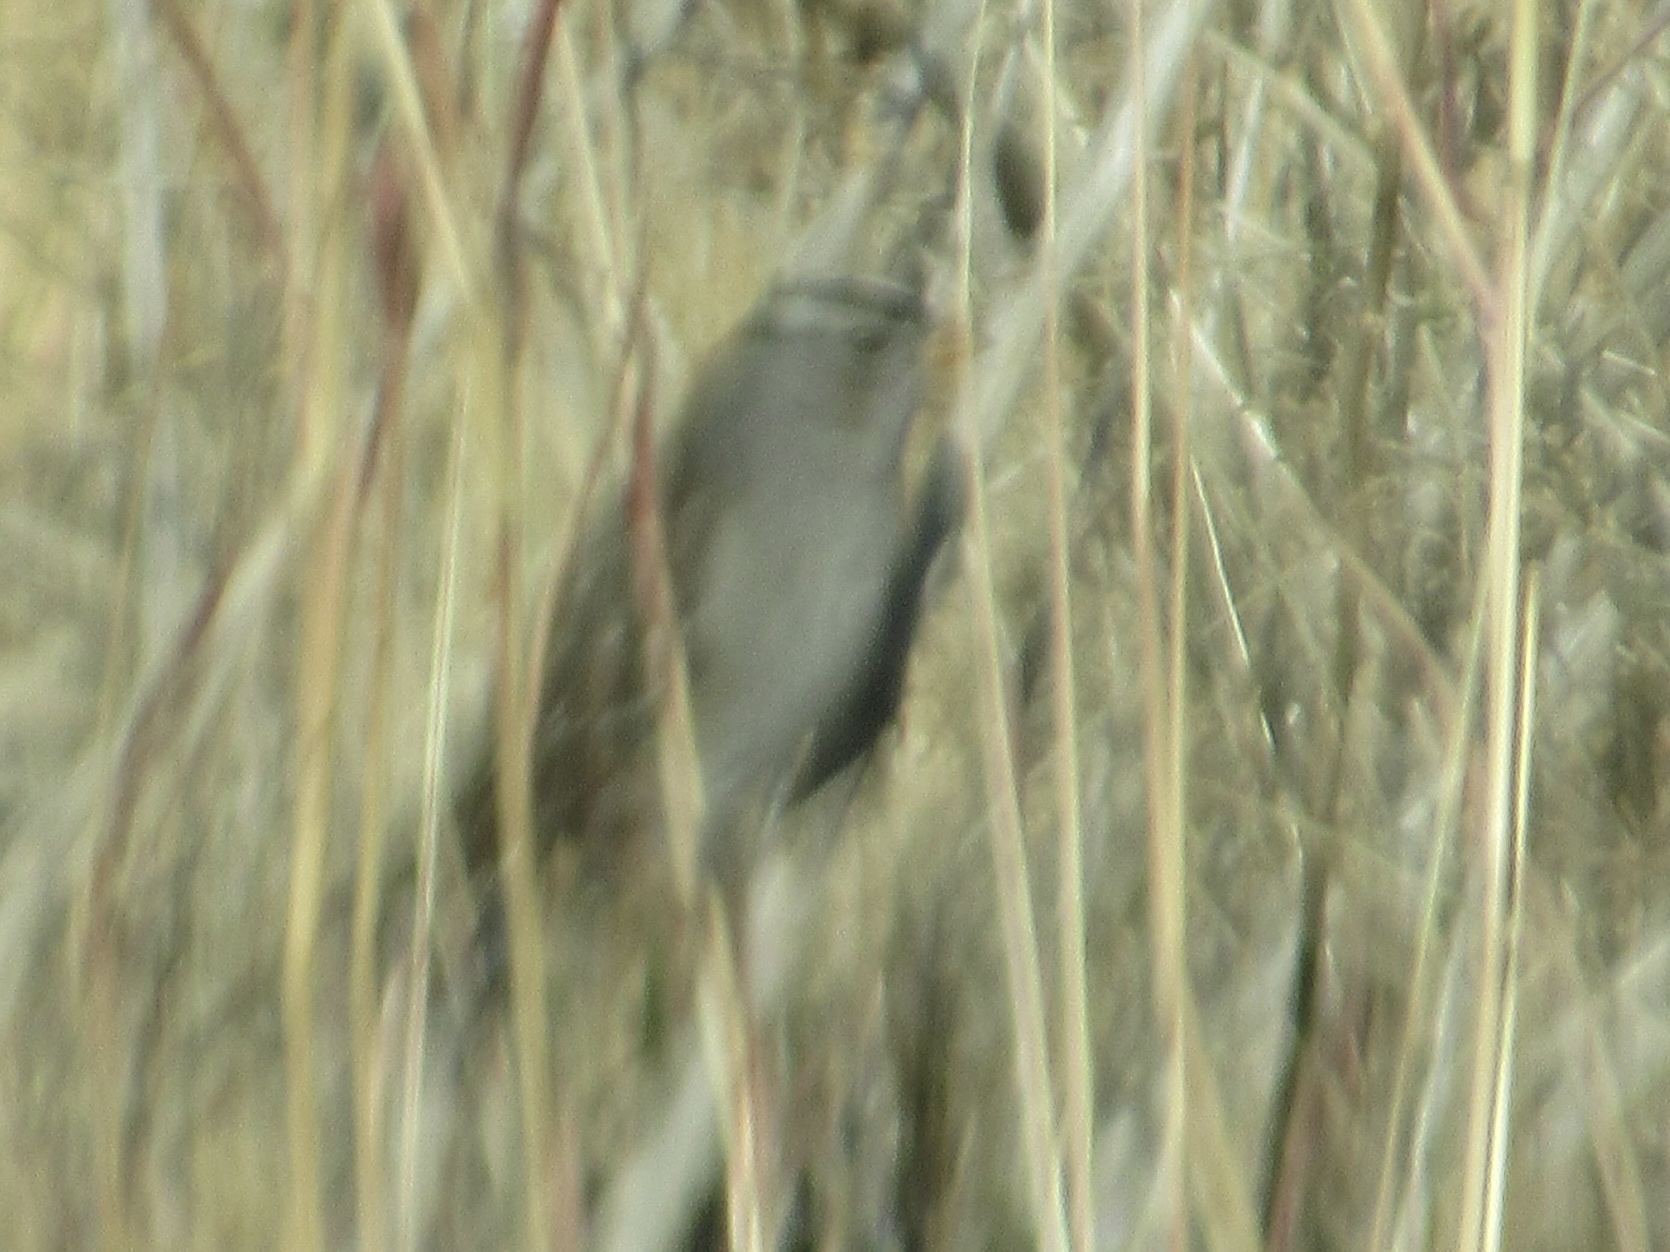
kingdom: Animalia
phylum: Chordata
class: Aves
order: Passeriformes
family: Passerellidae
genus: Zonotrichia
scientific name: Zonotrichia leucophrys
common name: White-crowned sparrow
